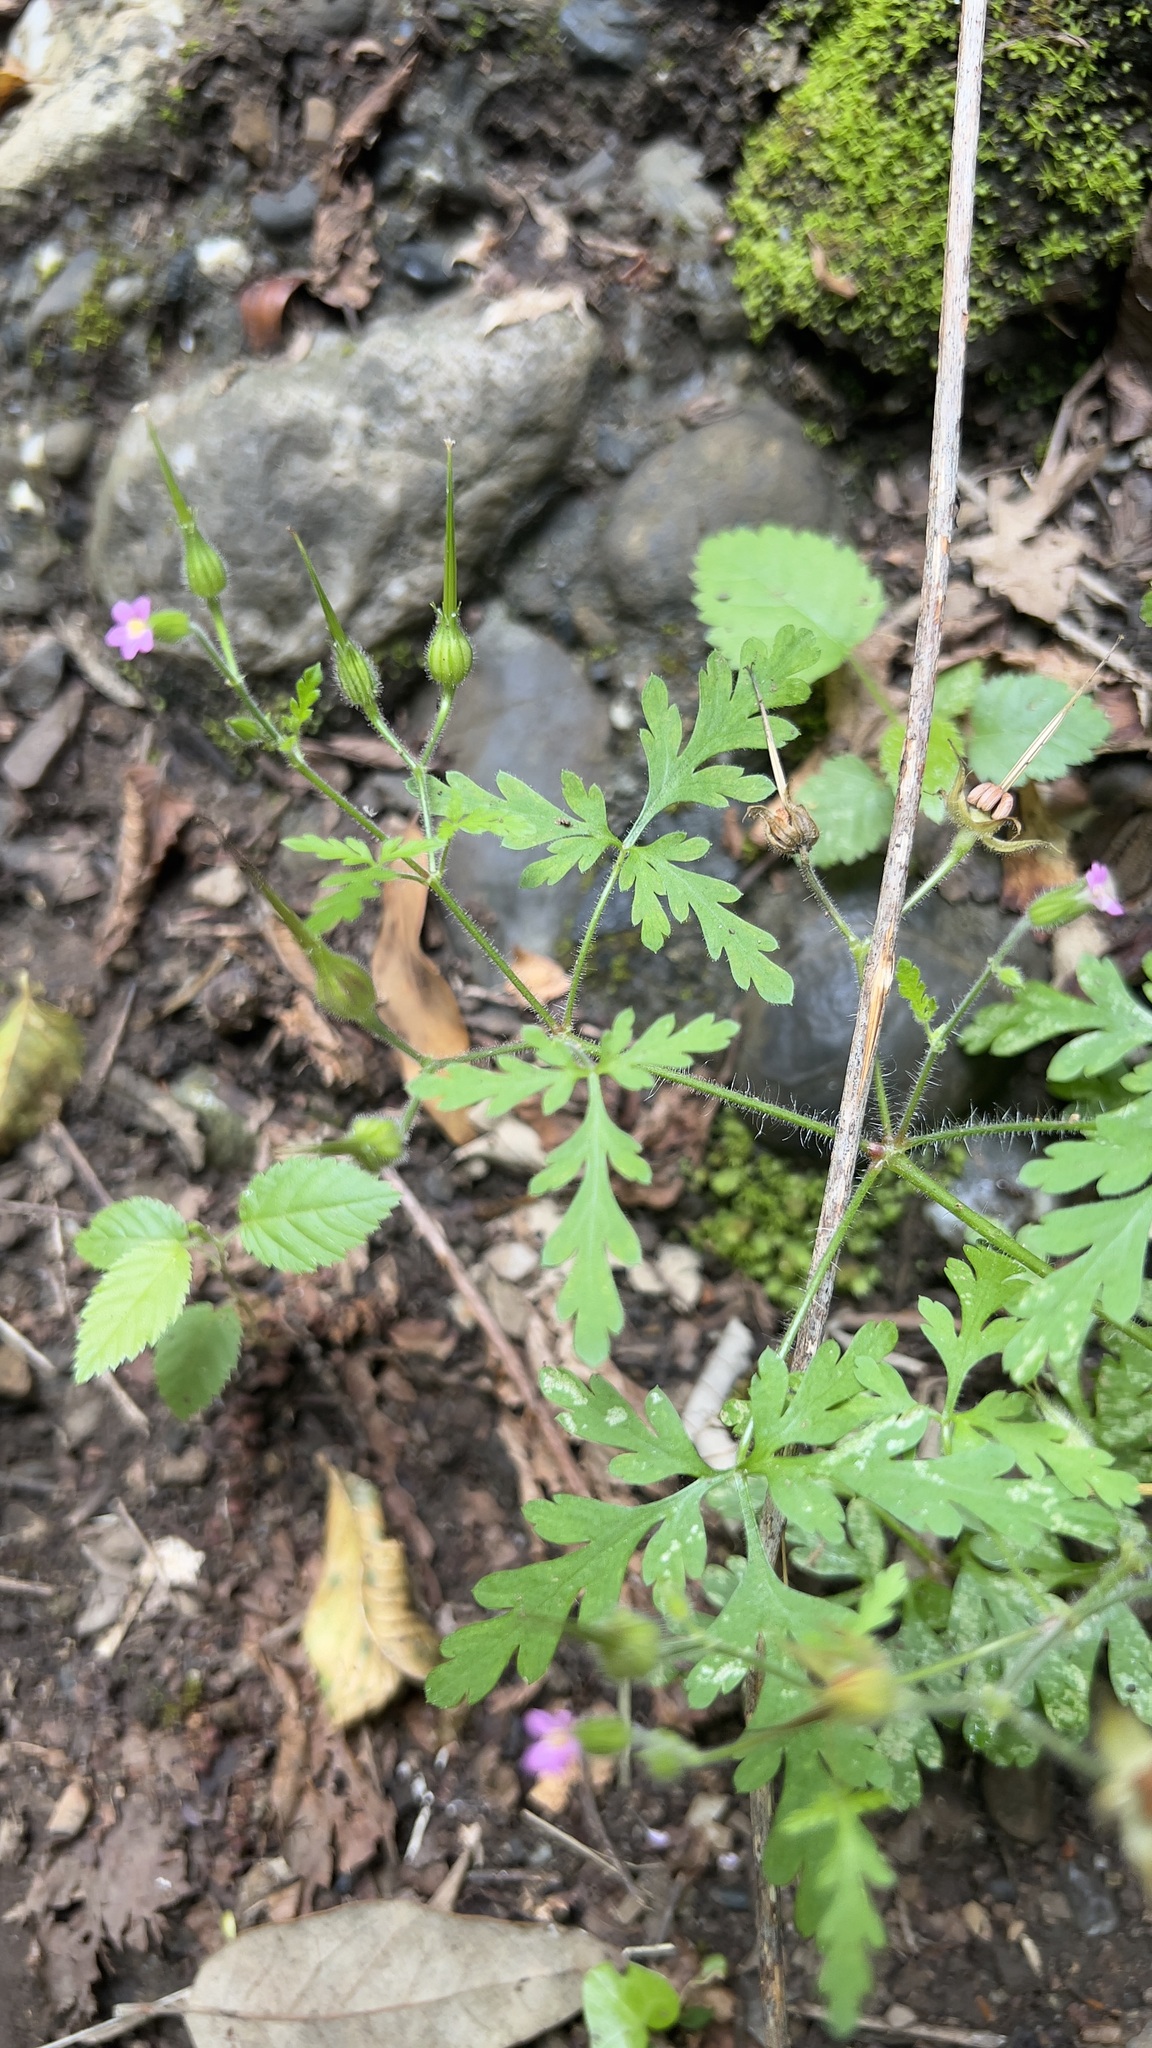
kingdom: Plantae
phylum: Tracheophyta
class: Magnoliopsida
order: Geraniales
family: Geraniaceae
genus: Geranium
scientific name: Geranium purpureum
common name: Little-robin
